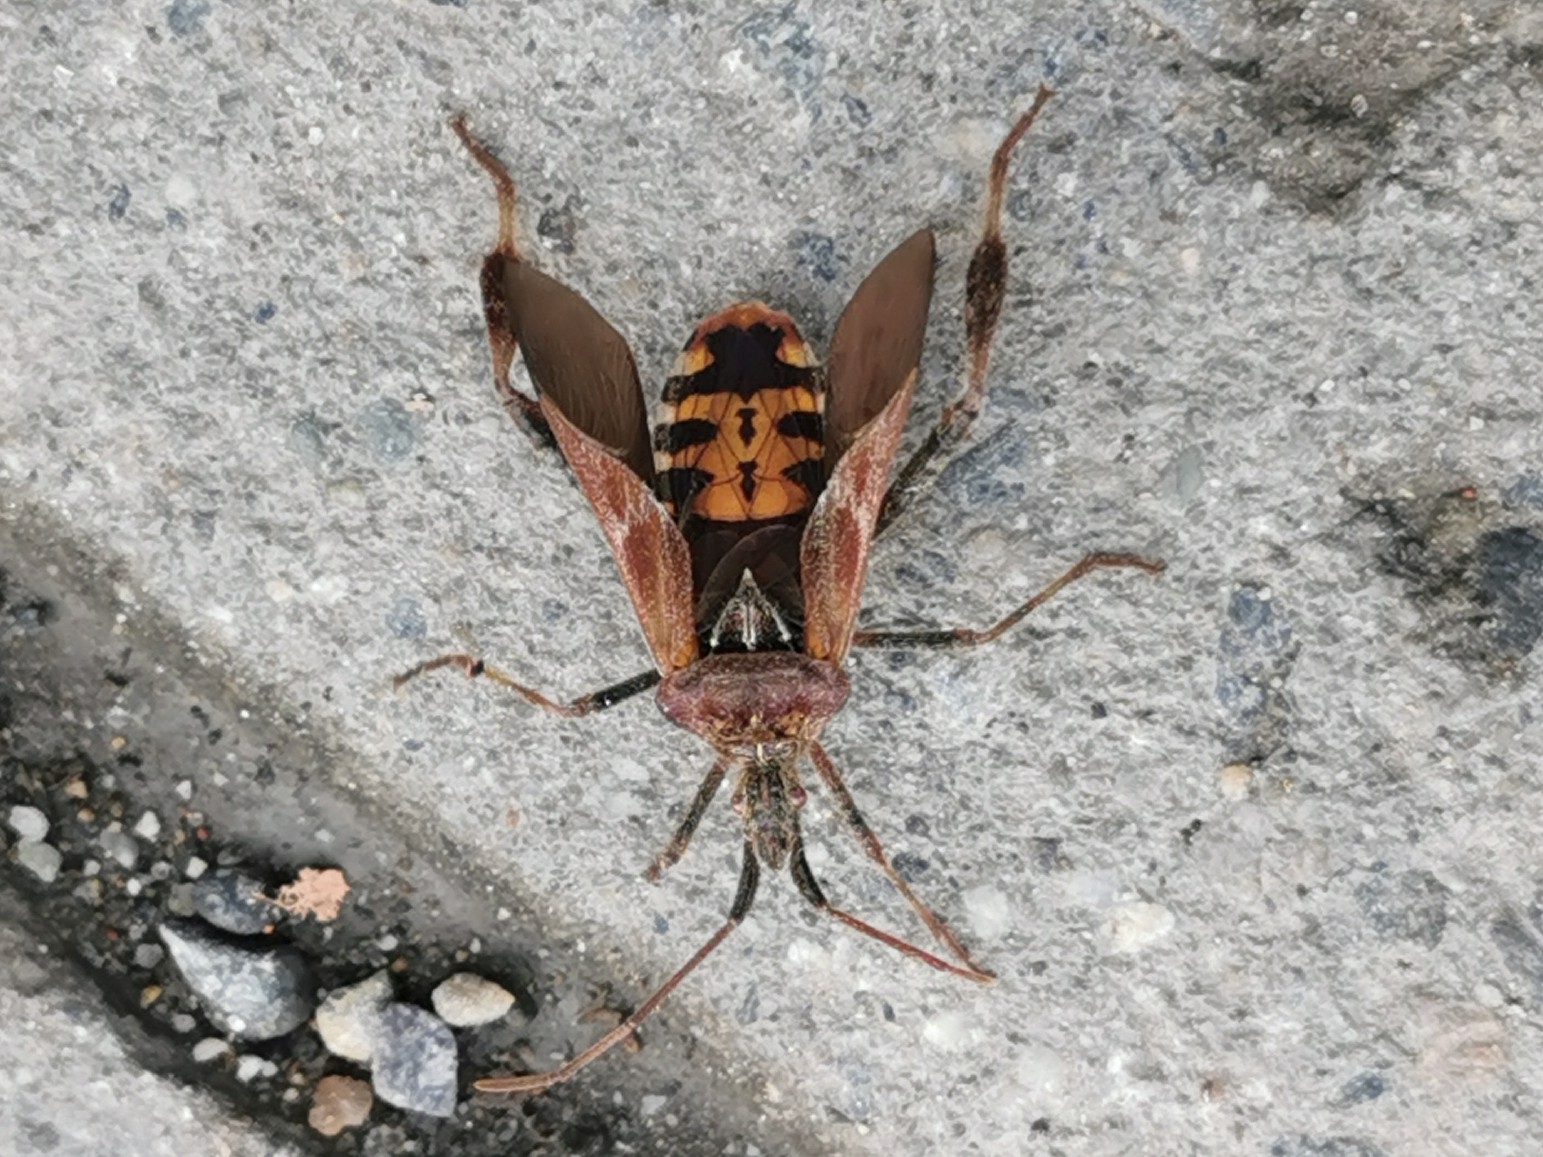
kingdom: Animalia
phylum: Arthropoda
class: Insecta
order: Hemiptera
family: Coreidae
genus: Leptoglossus
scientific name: Leptoglossus occidentalis
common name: Western conifer-seed bug
